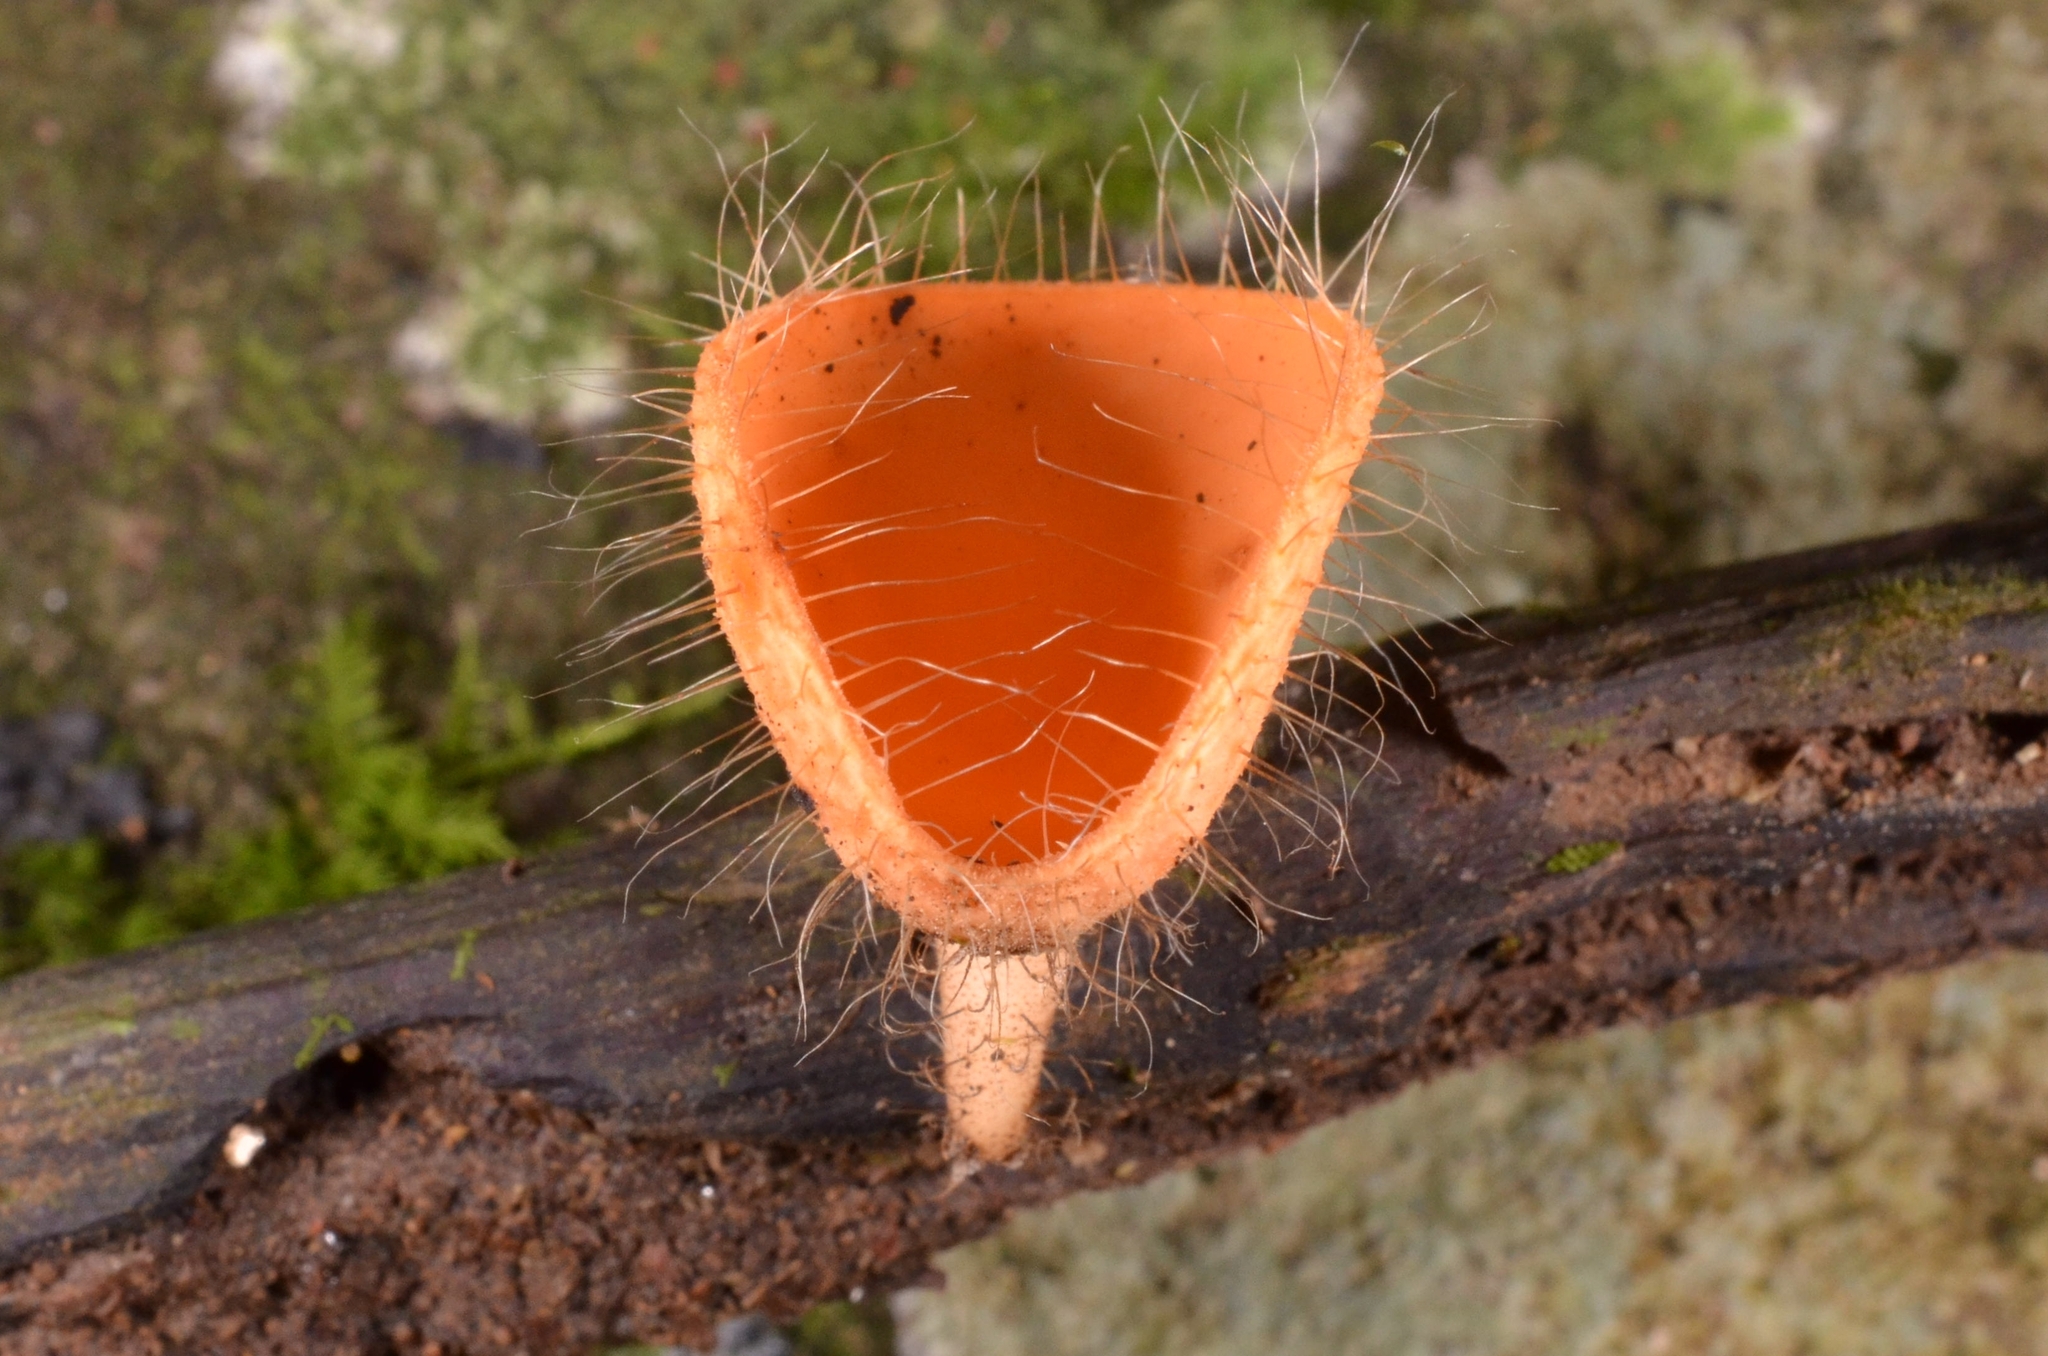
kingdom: Fungi
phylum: Ascomycota
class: Pezizomycetes
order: Pezizales
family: Sarcoscyphaceae
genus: Cookeina
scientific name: Cookeina tricholoma
